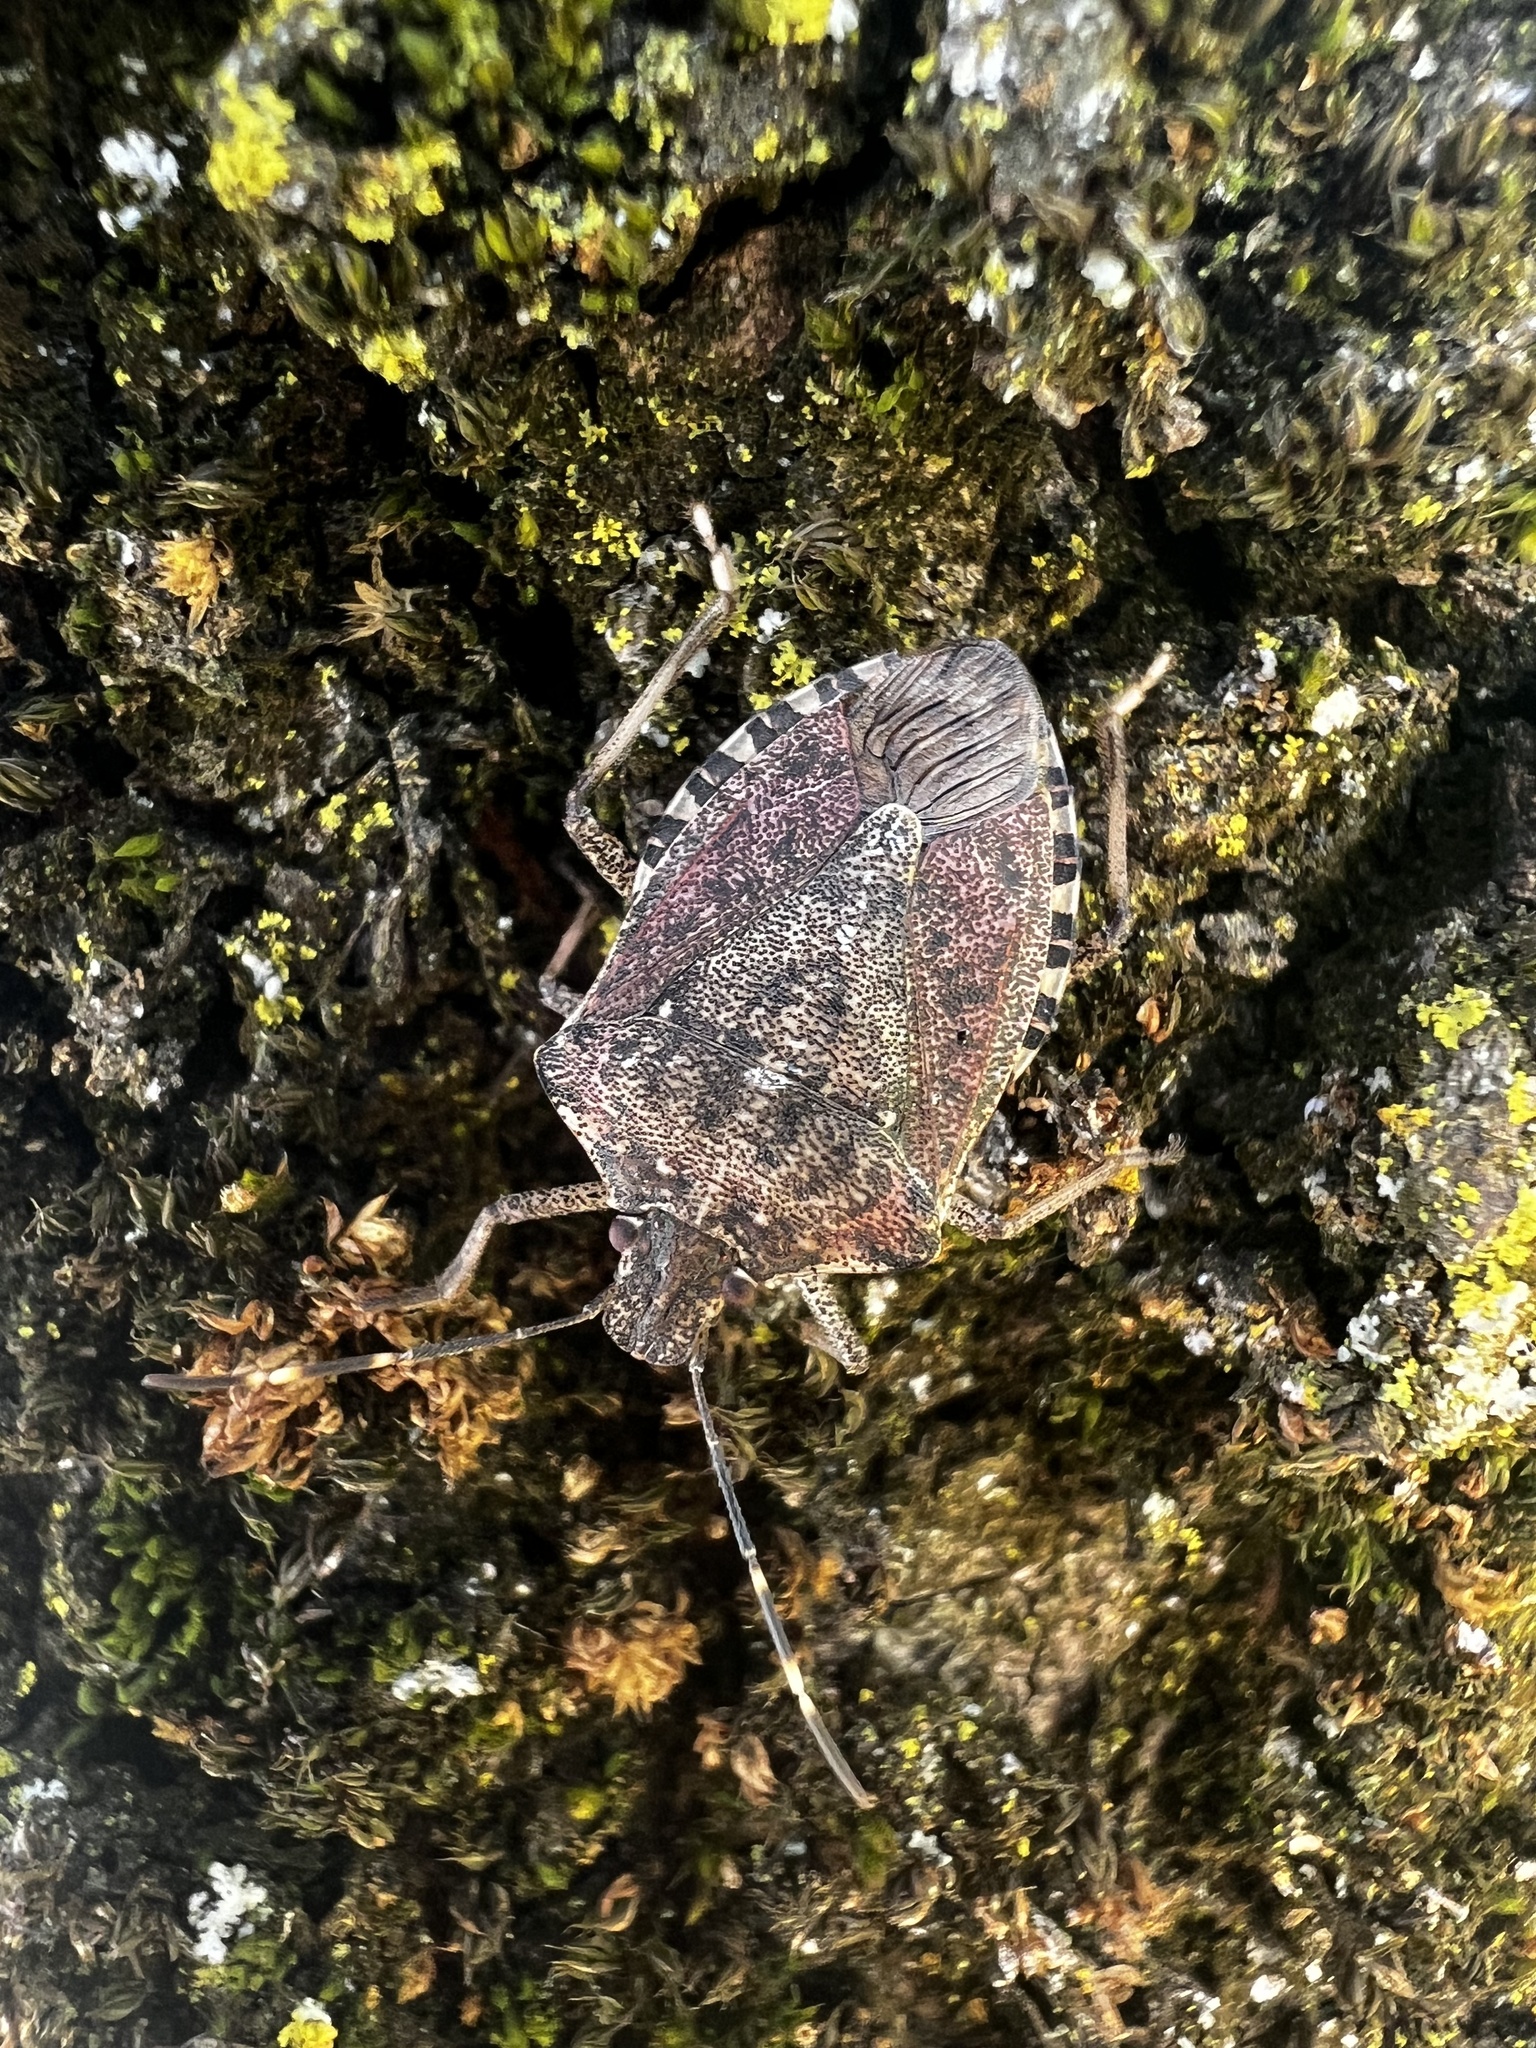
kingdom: Animalia
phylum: Arthropoda
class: Insecta
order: Hemiptera
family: Pentatomidae
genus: Halyomorpha
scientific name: Halyomorpha halys
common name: Brown marmorated stink bug
